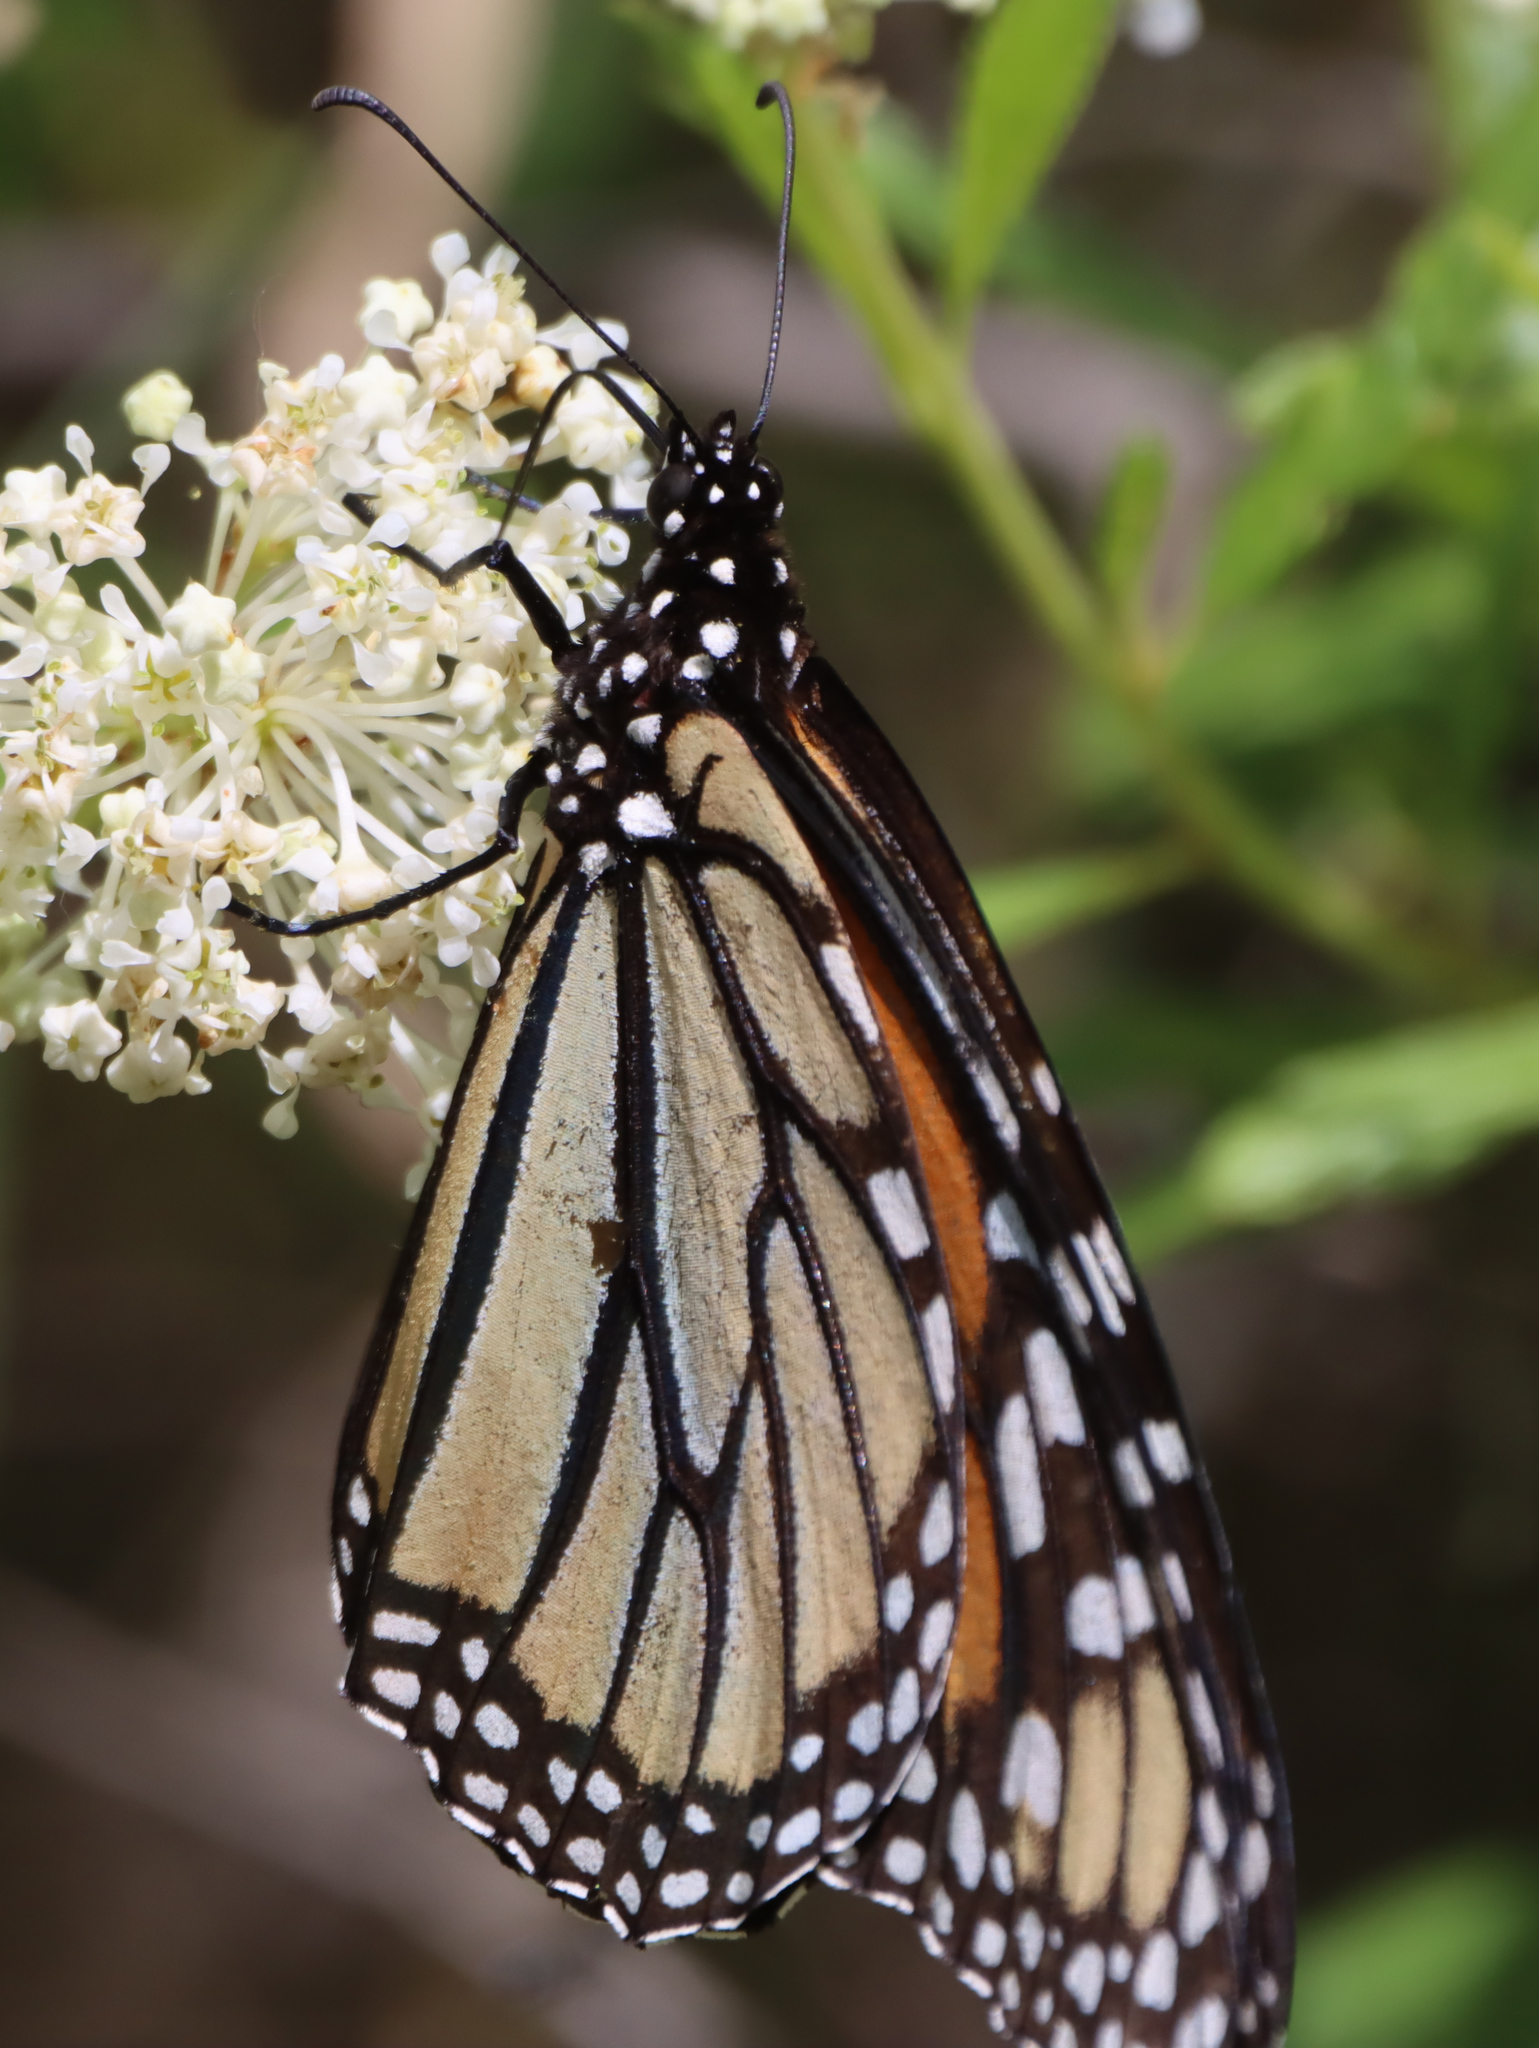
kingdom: Animalia
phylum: Arthropoda
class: Insecta
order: Lepidoptera
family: Nymphalidae
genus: Danaus
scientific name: Danaus plexippus
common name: Monarch
